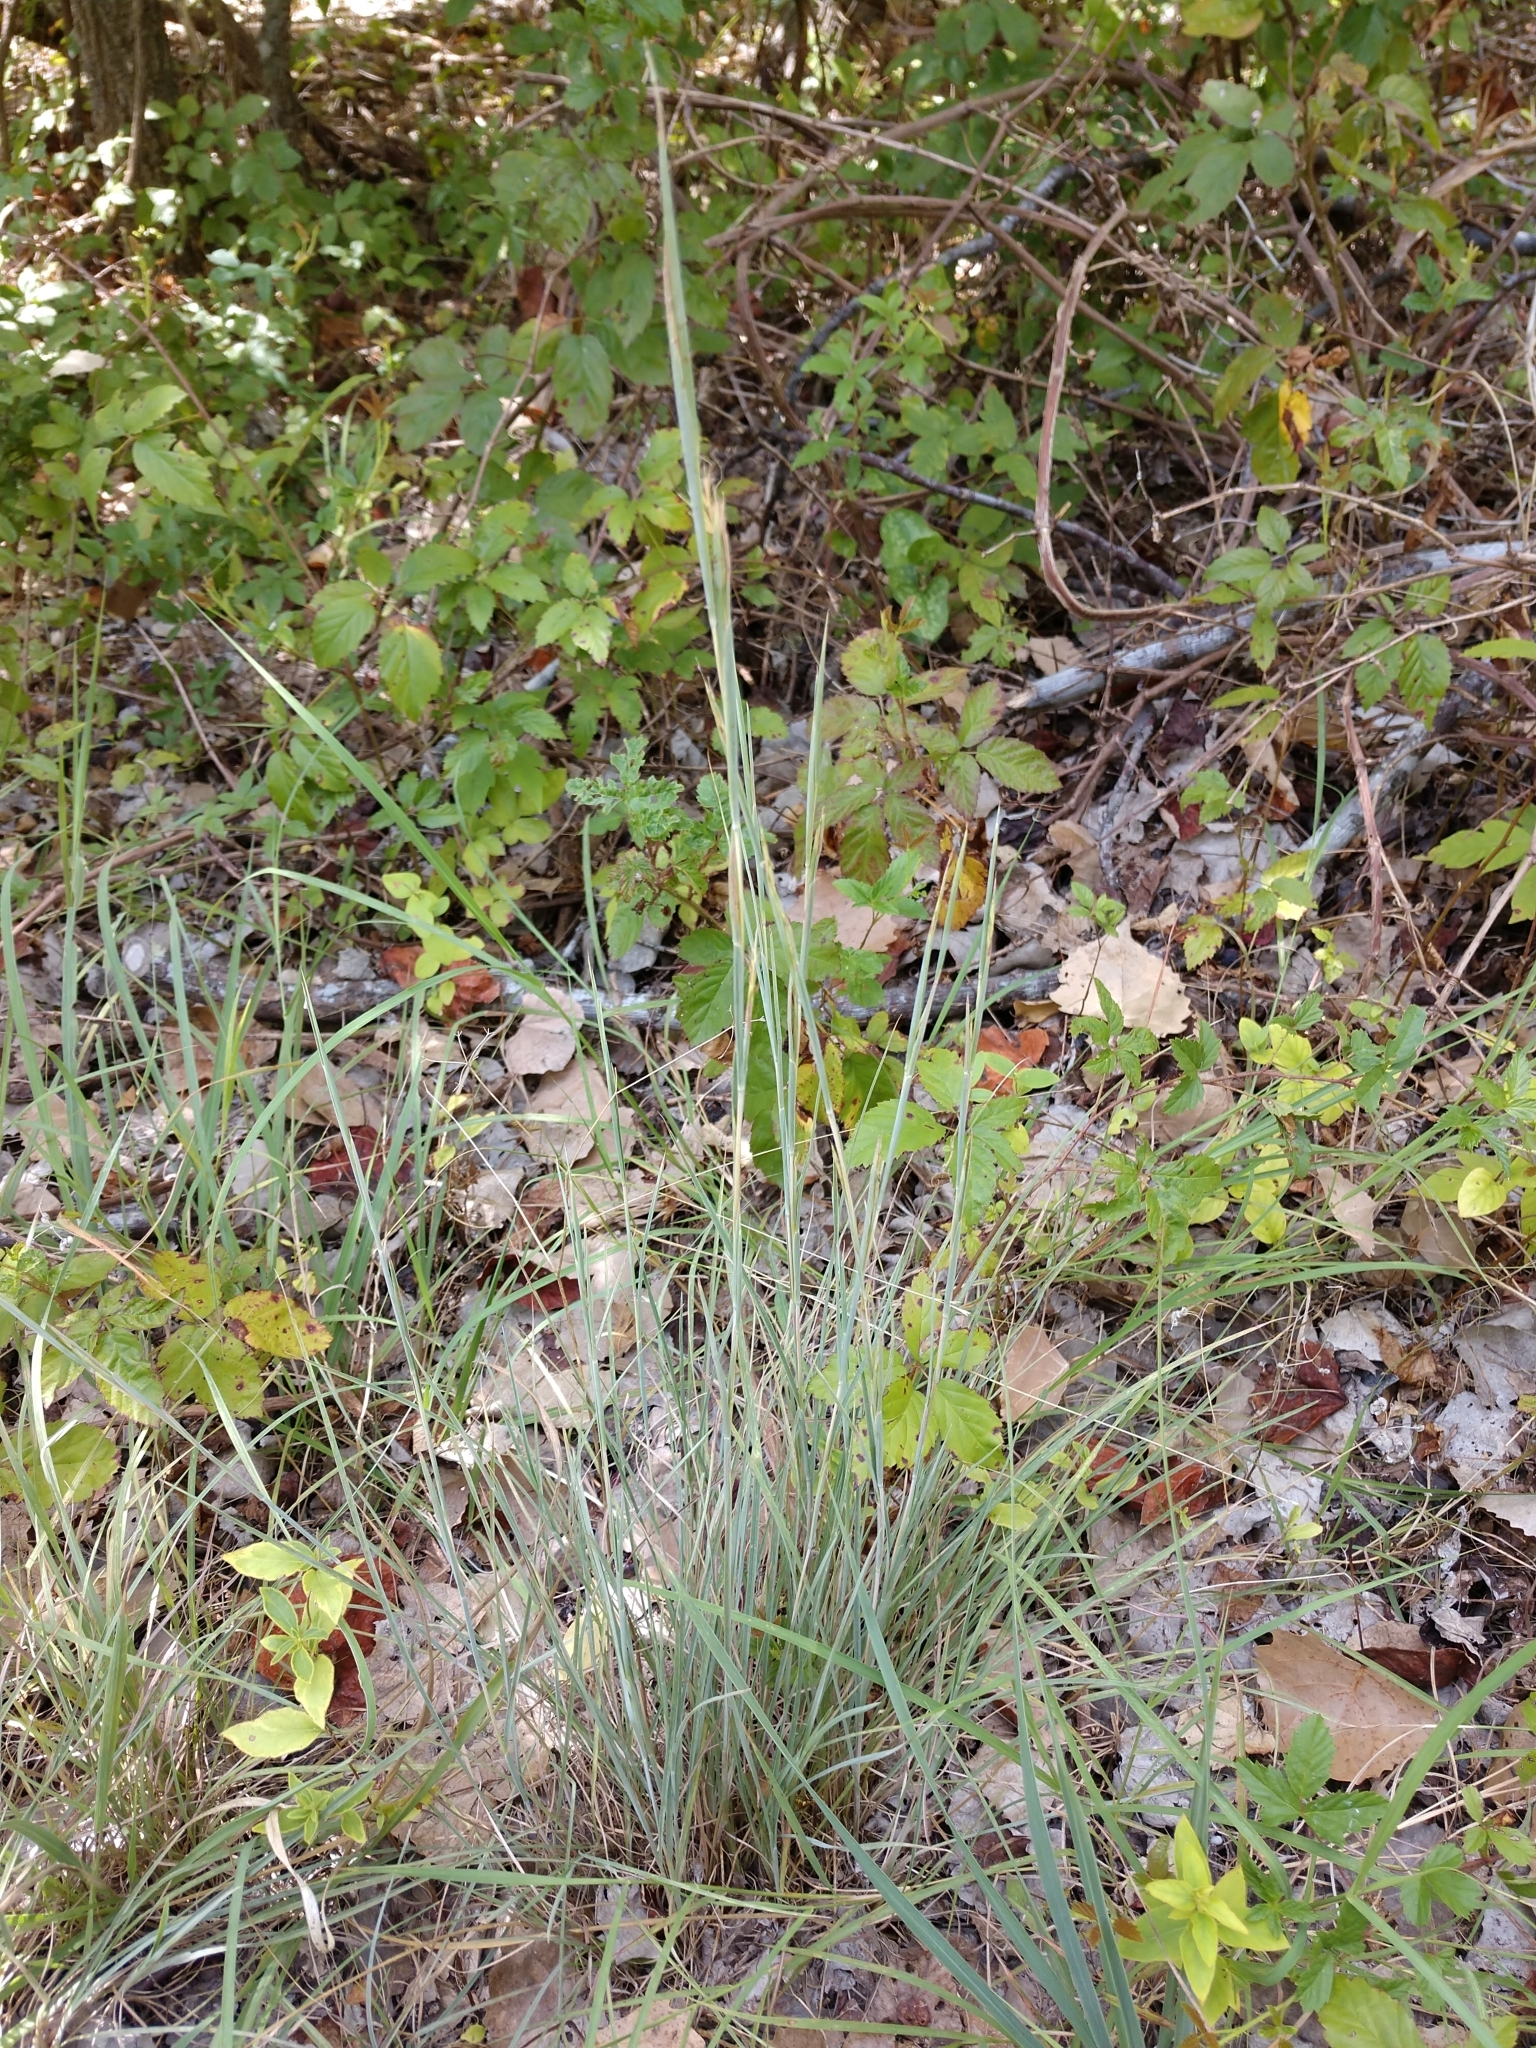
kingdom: Plantae
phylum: Tracheophyta
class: Liliopsida
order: Poales
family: Poaceae
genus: Schizachyrium
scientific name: Schizachyrium scoparium
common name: Little bluestem
